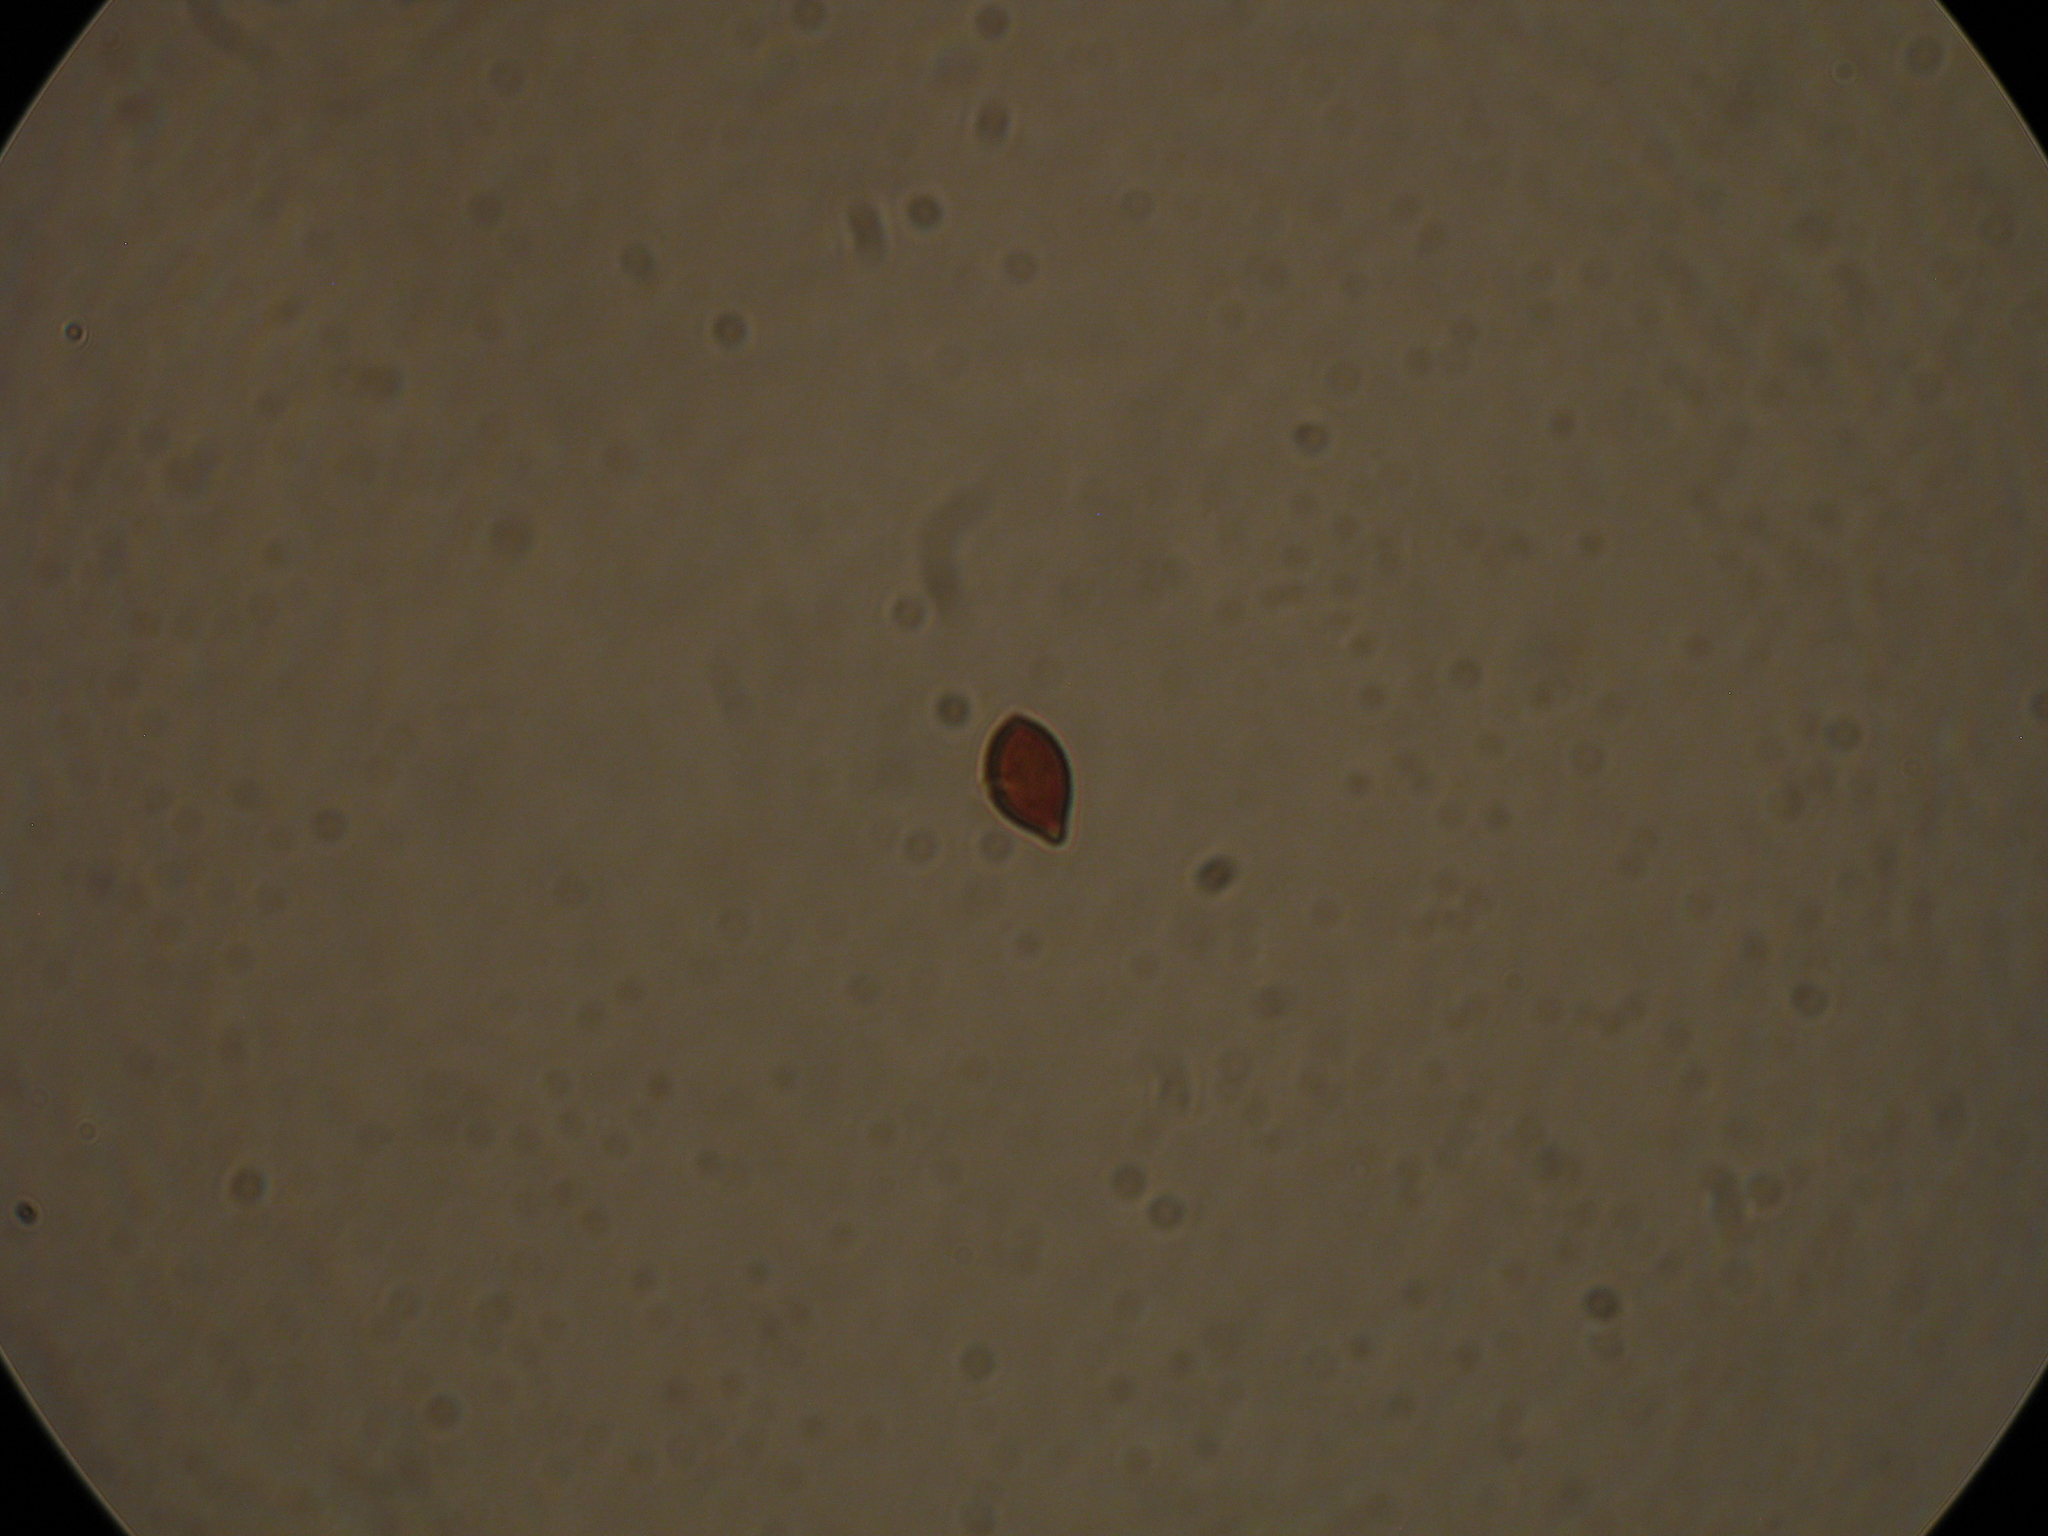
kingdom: Fungi
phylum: Basidiomycota
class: Agaricomycetes
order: Agaricales
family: Bolbitiaceae
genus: Descolea
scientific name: Descolea recedens
